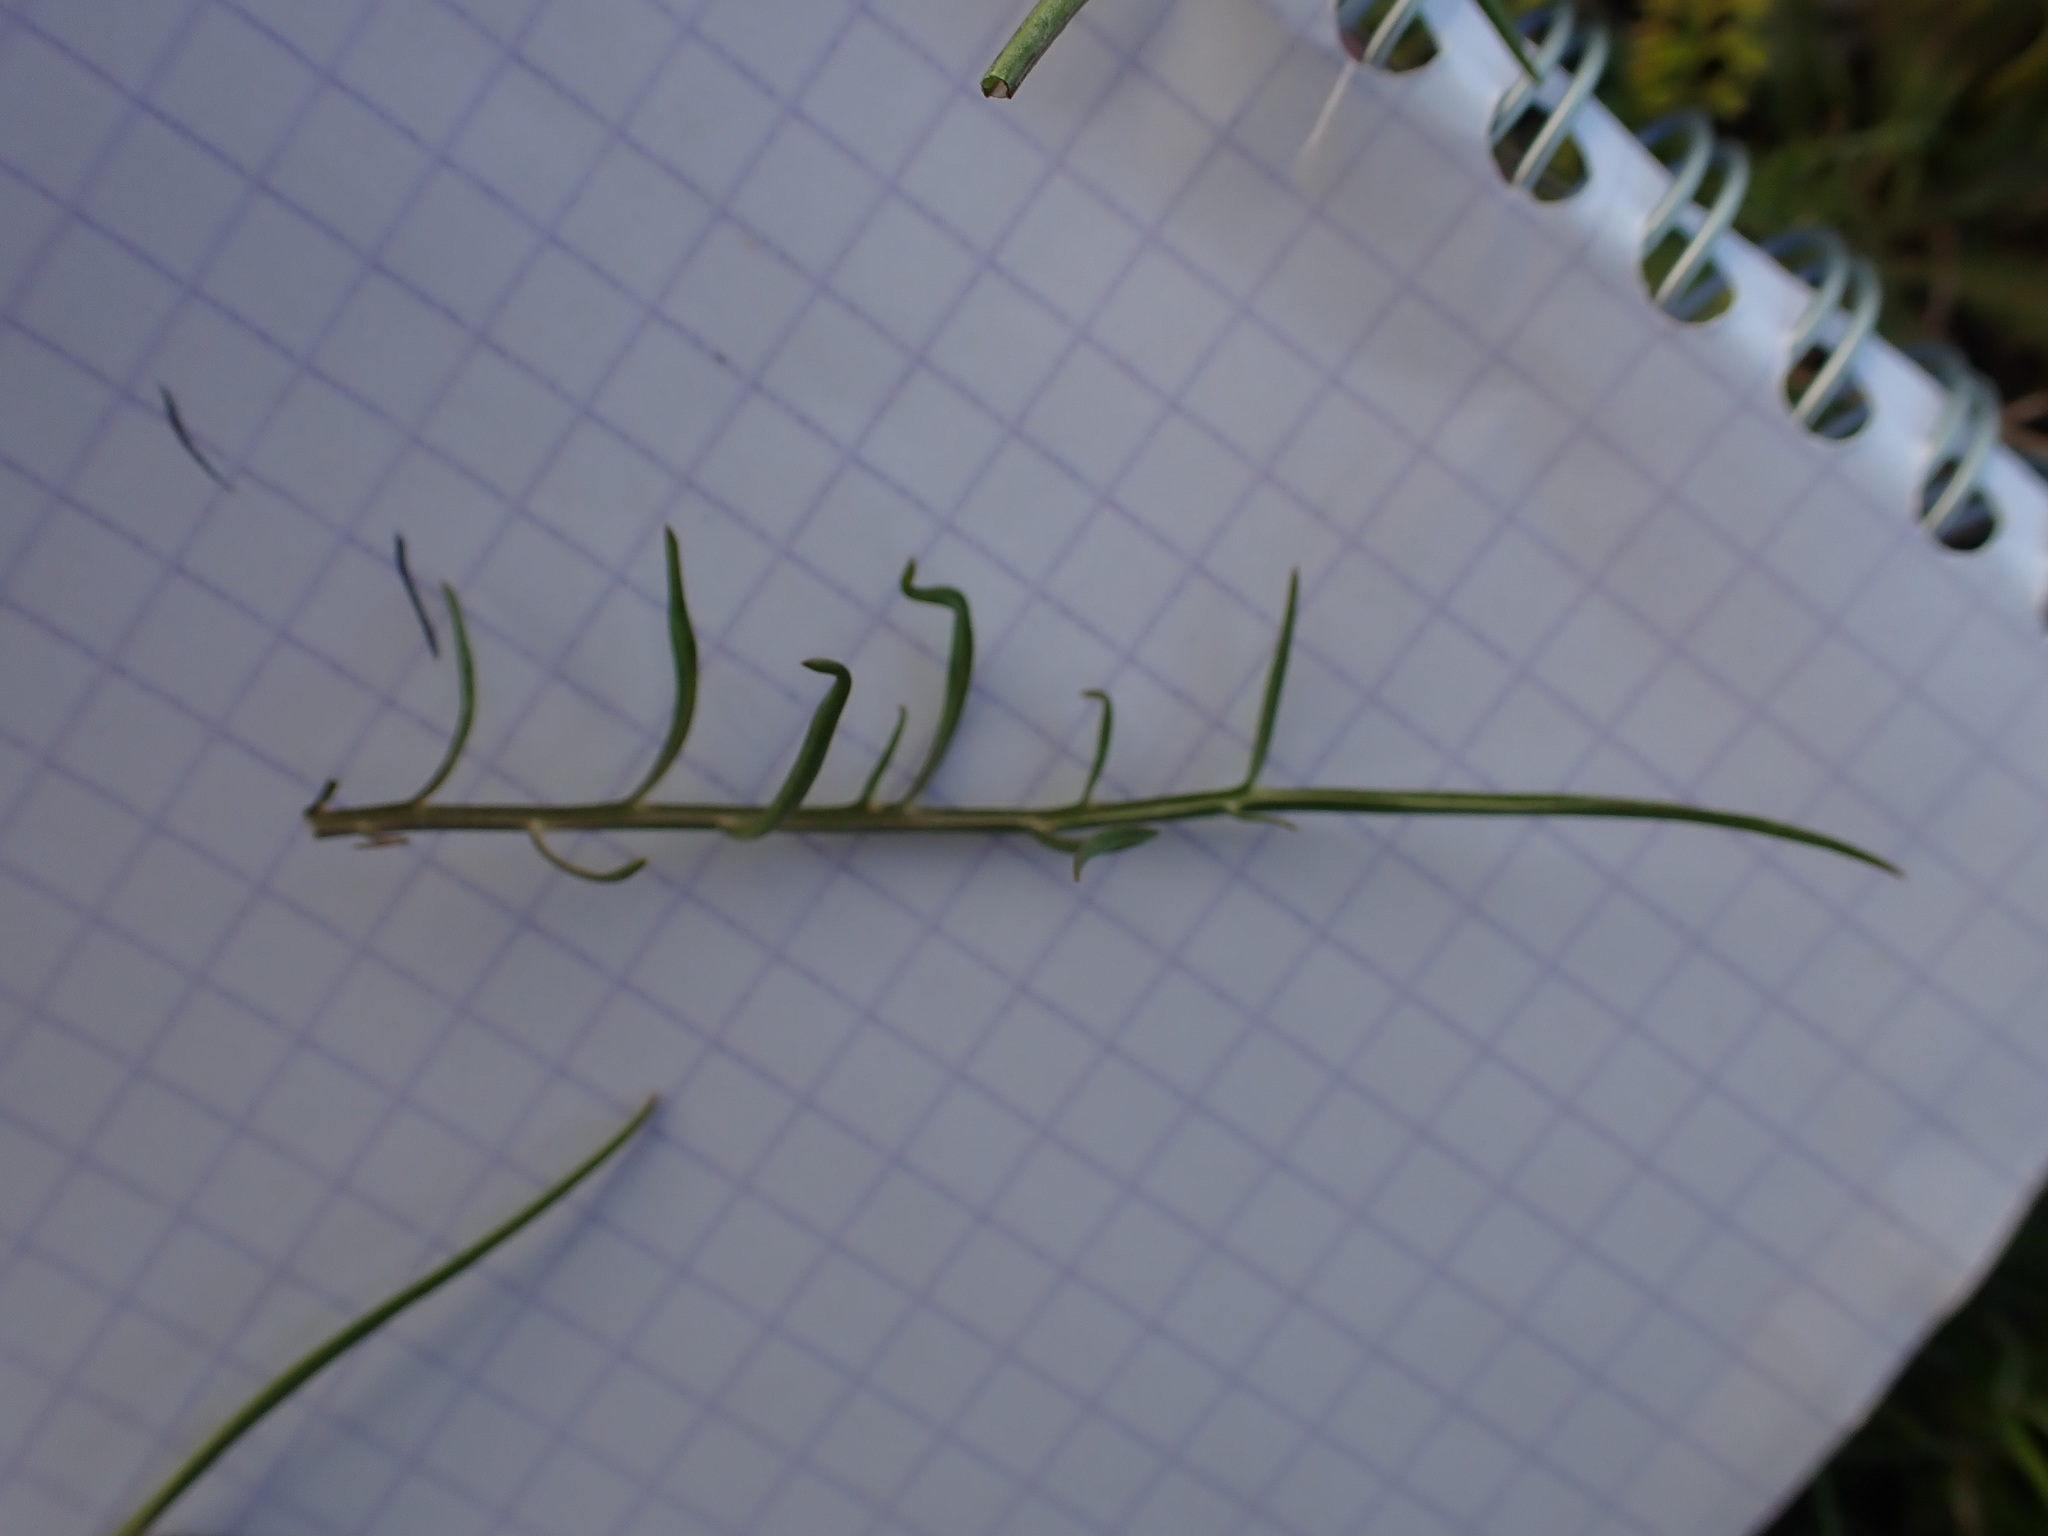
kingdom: Plantae
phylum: Tracheophyta
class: Magnoliopsida
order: Asterales
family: Asteraceae
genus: Scorzonera
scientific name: Scorzonera laciniata
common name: Cutleaf vipergrass
